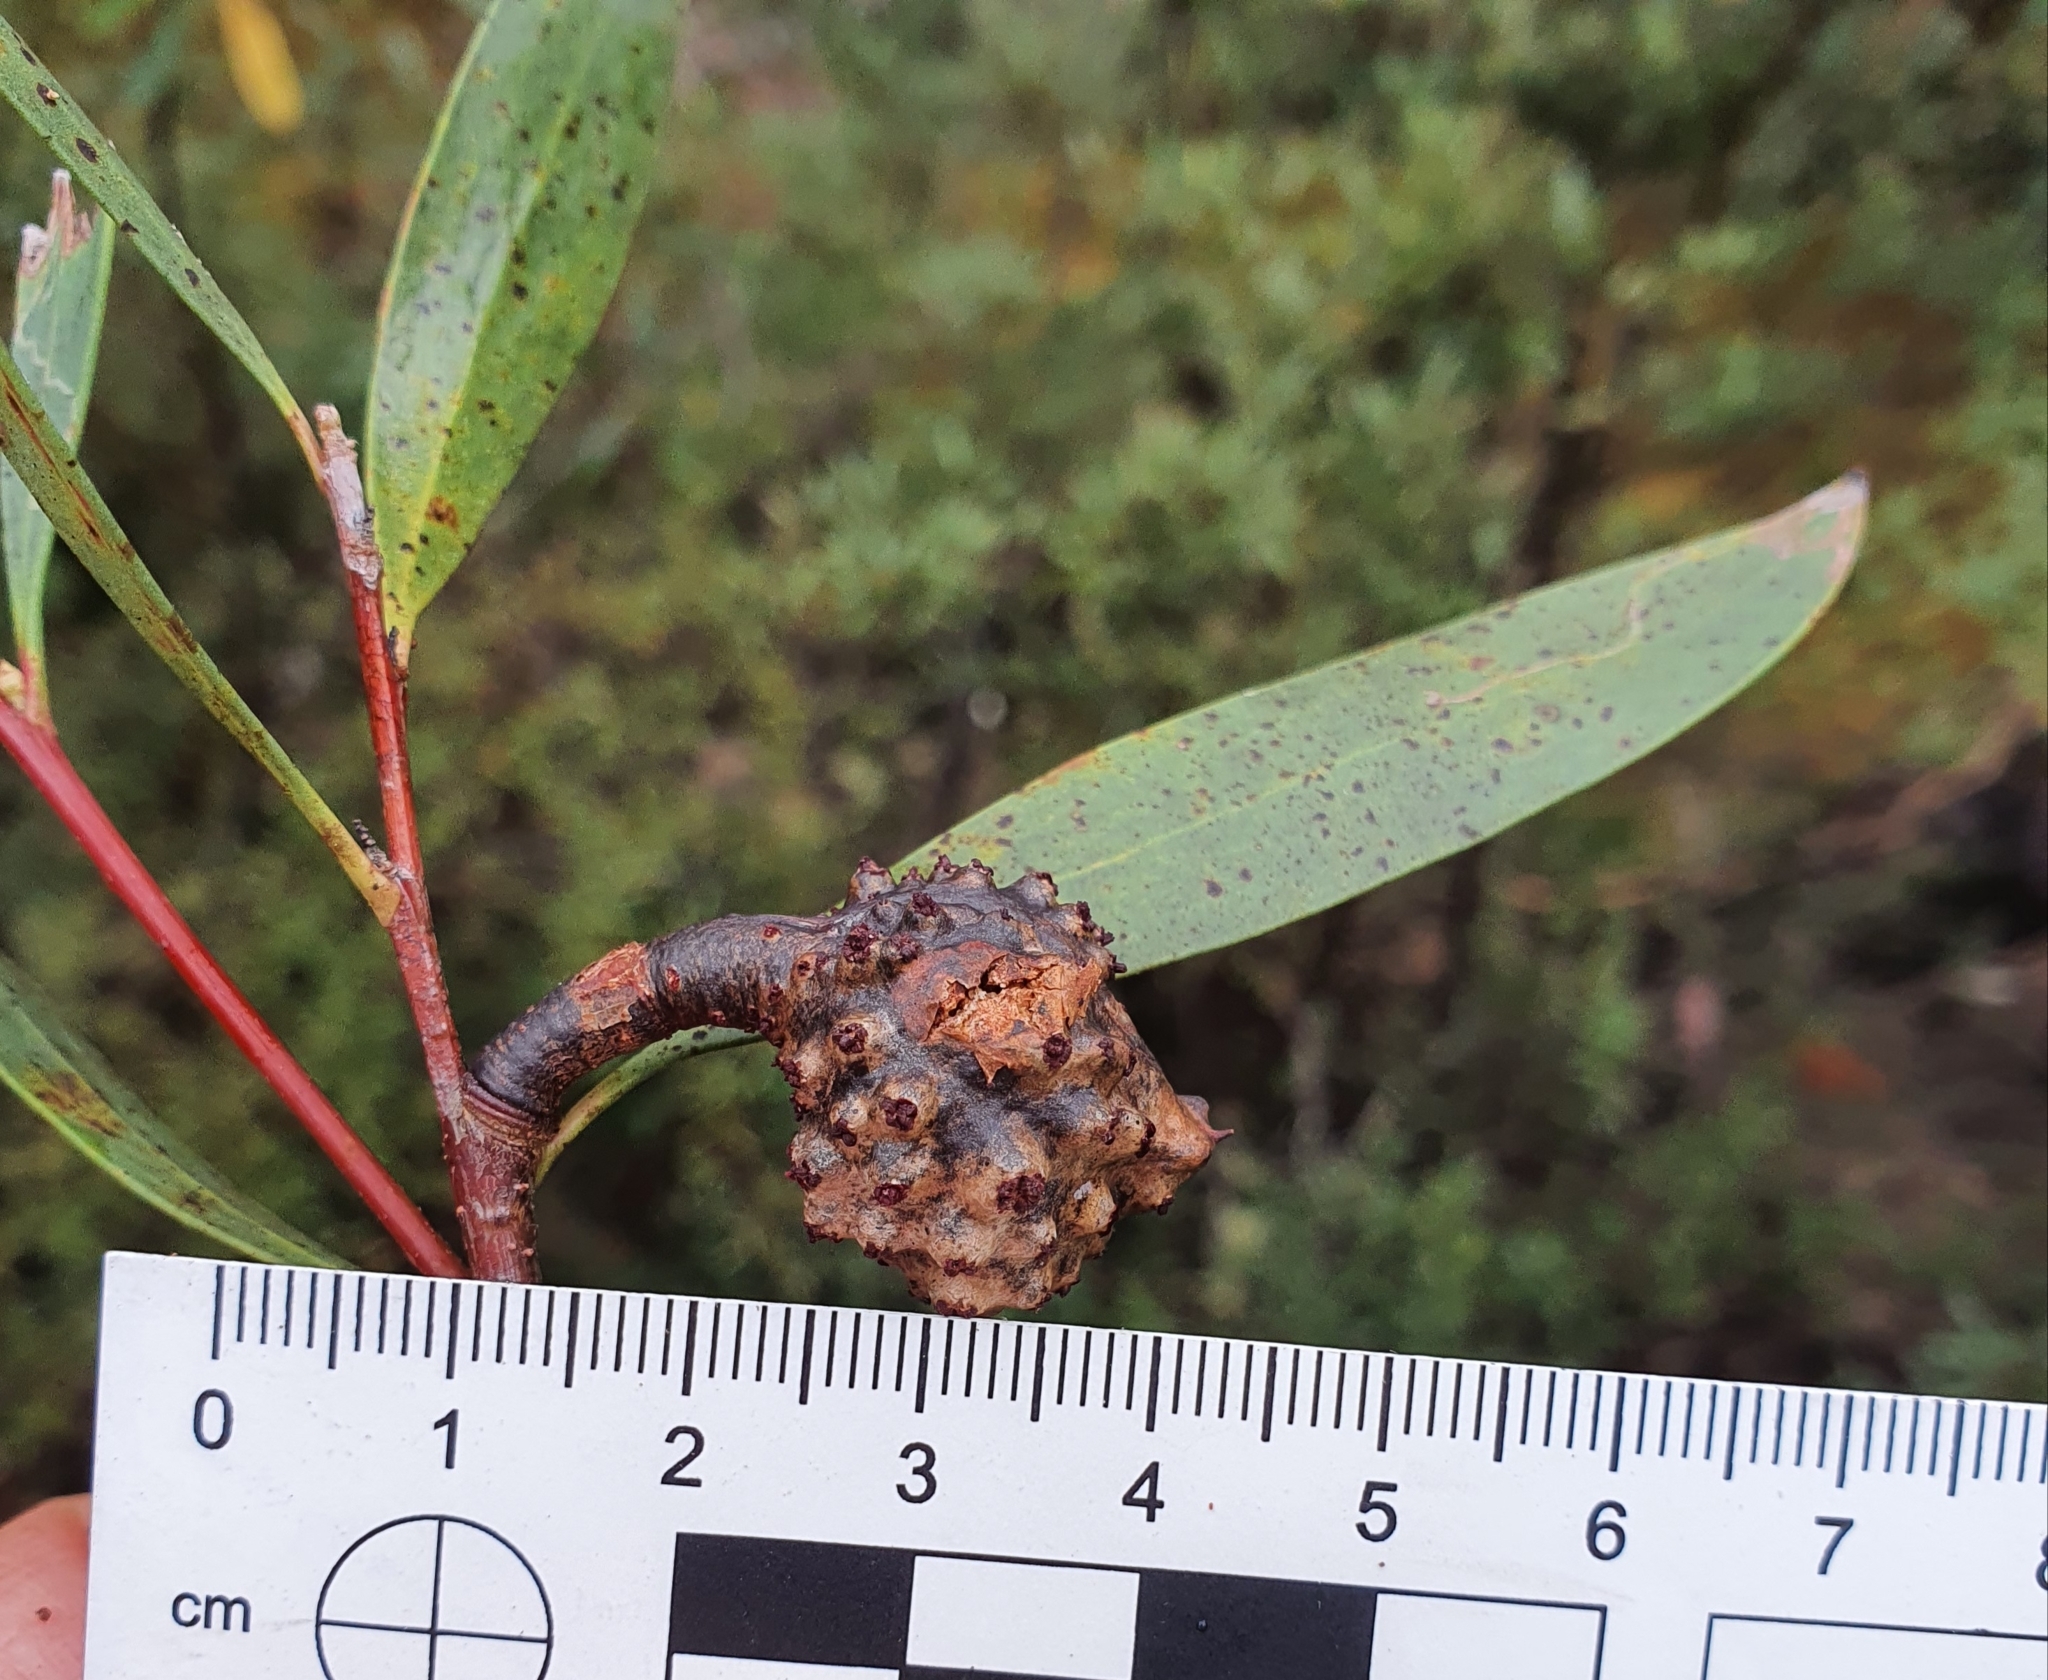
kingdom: Plantae
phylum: Tracheophyta
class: Magnoliopsida
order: Proteales
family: Proteaceae
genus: Hakea
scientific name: Hakea salicifolia
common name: Willow hakea
